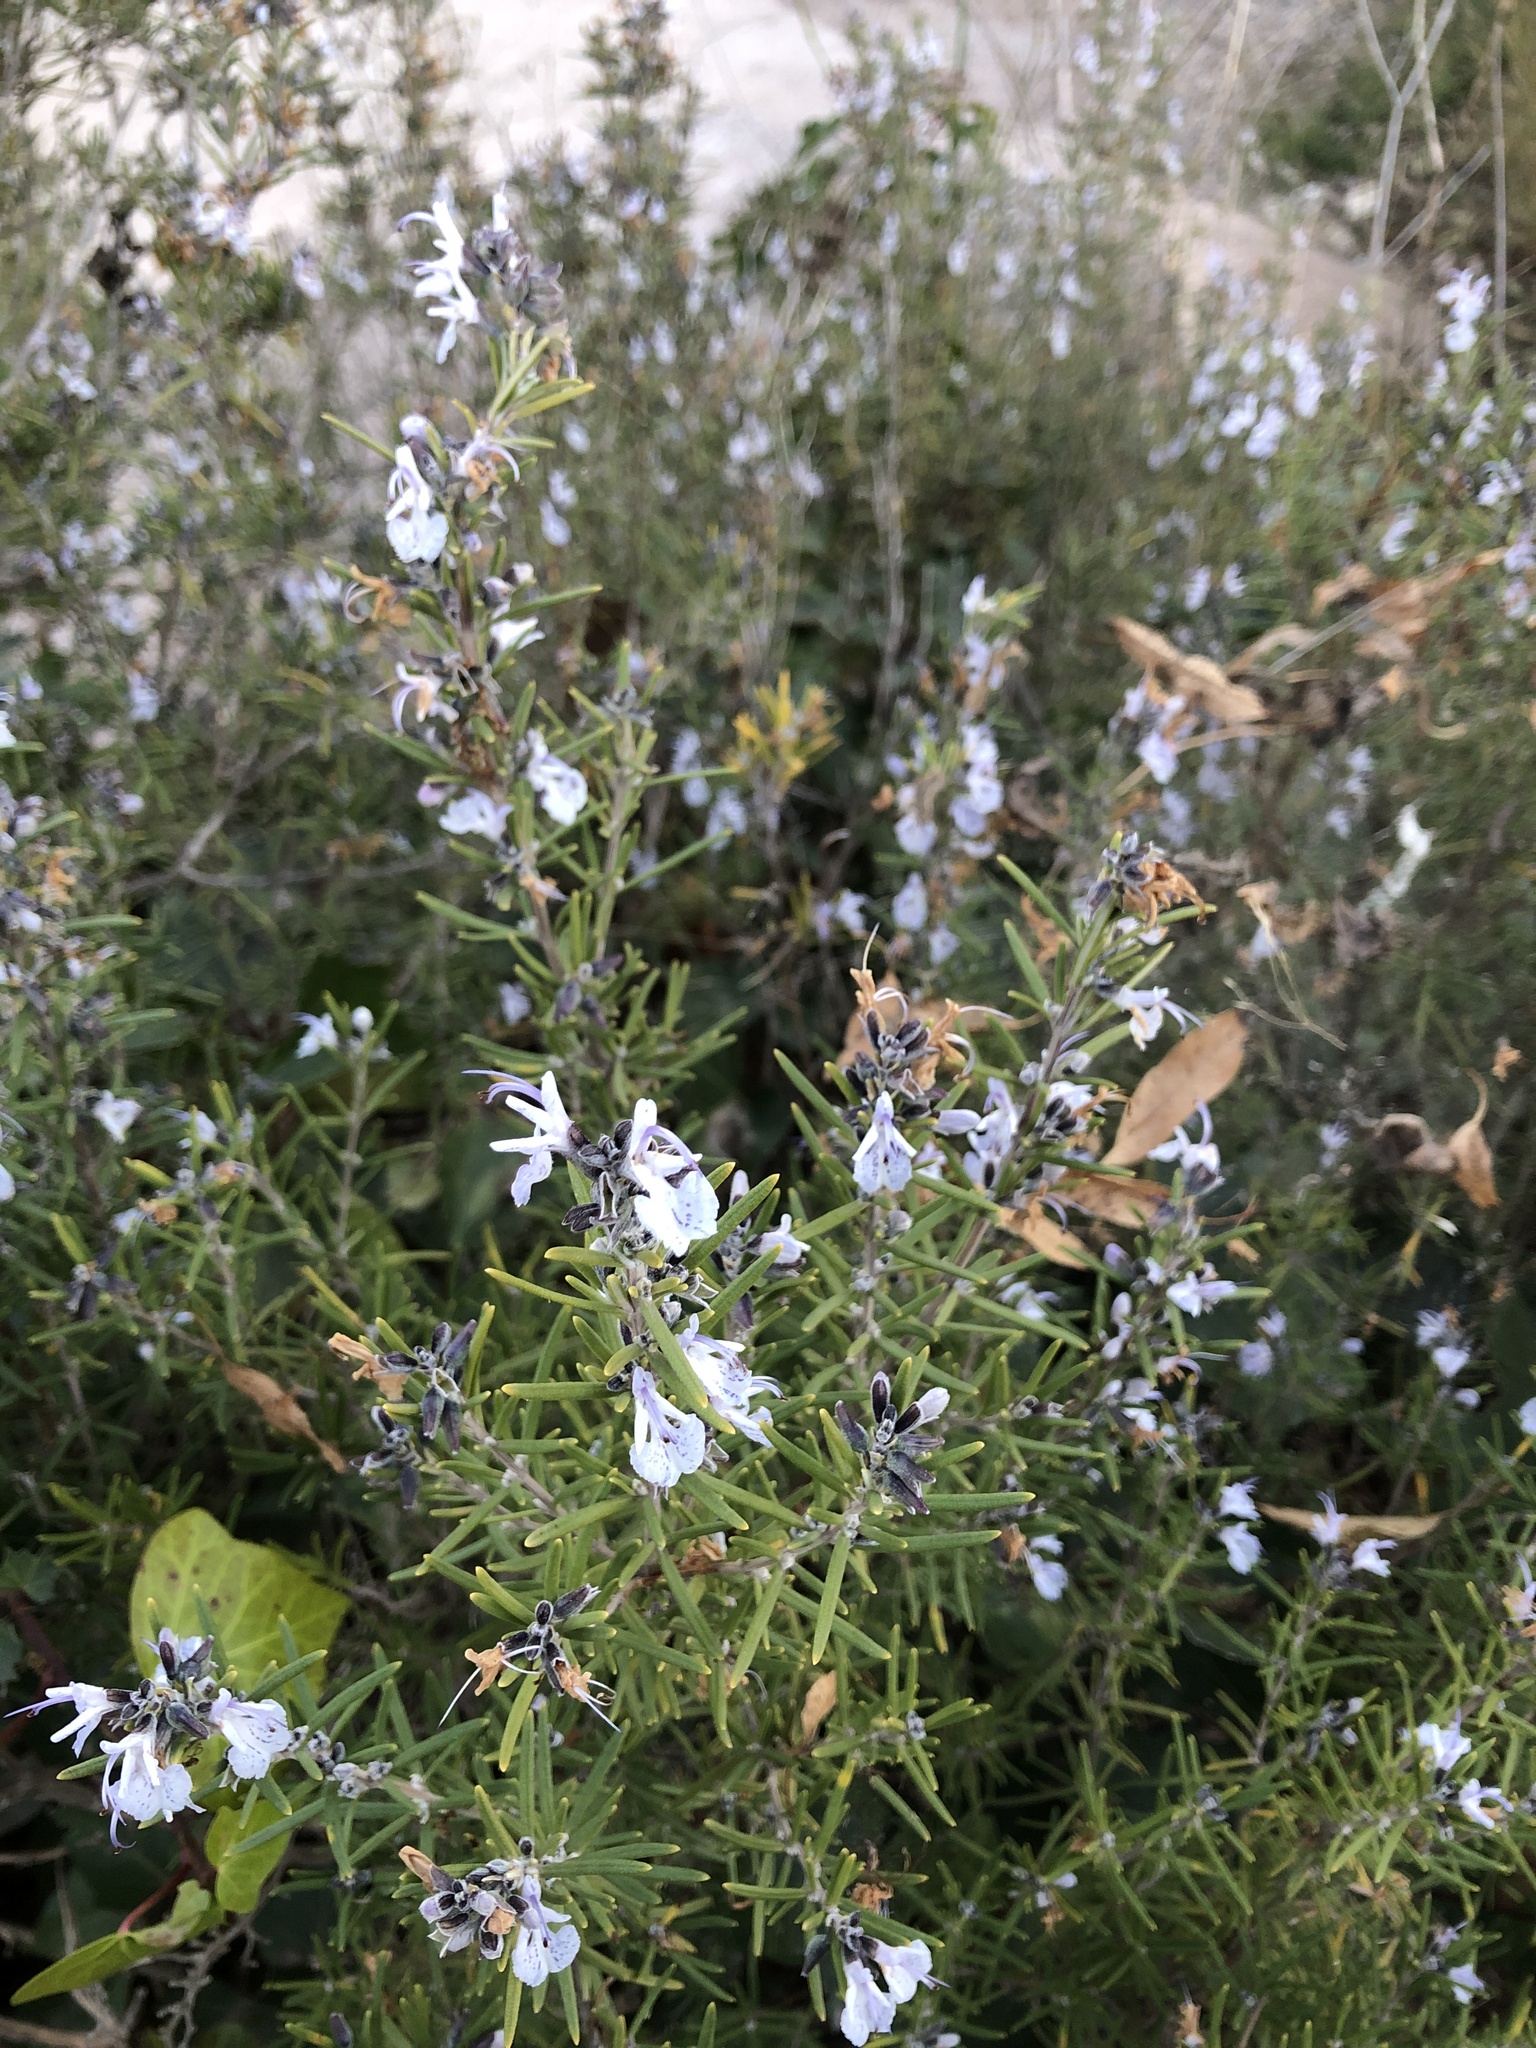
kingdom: Plantae
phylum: Tracheophyta
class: Magnoliopsida
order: Lamiales
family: Lamiaceae
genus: Salvia
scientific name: Salvia rosmarinus
